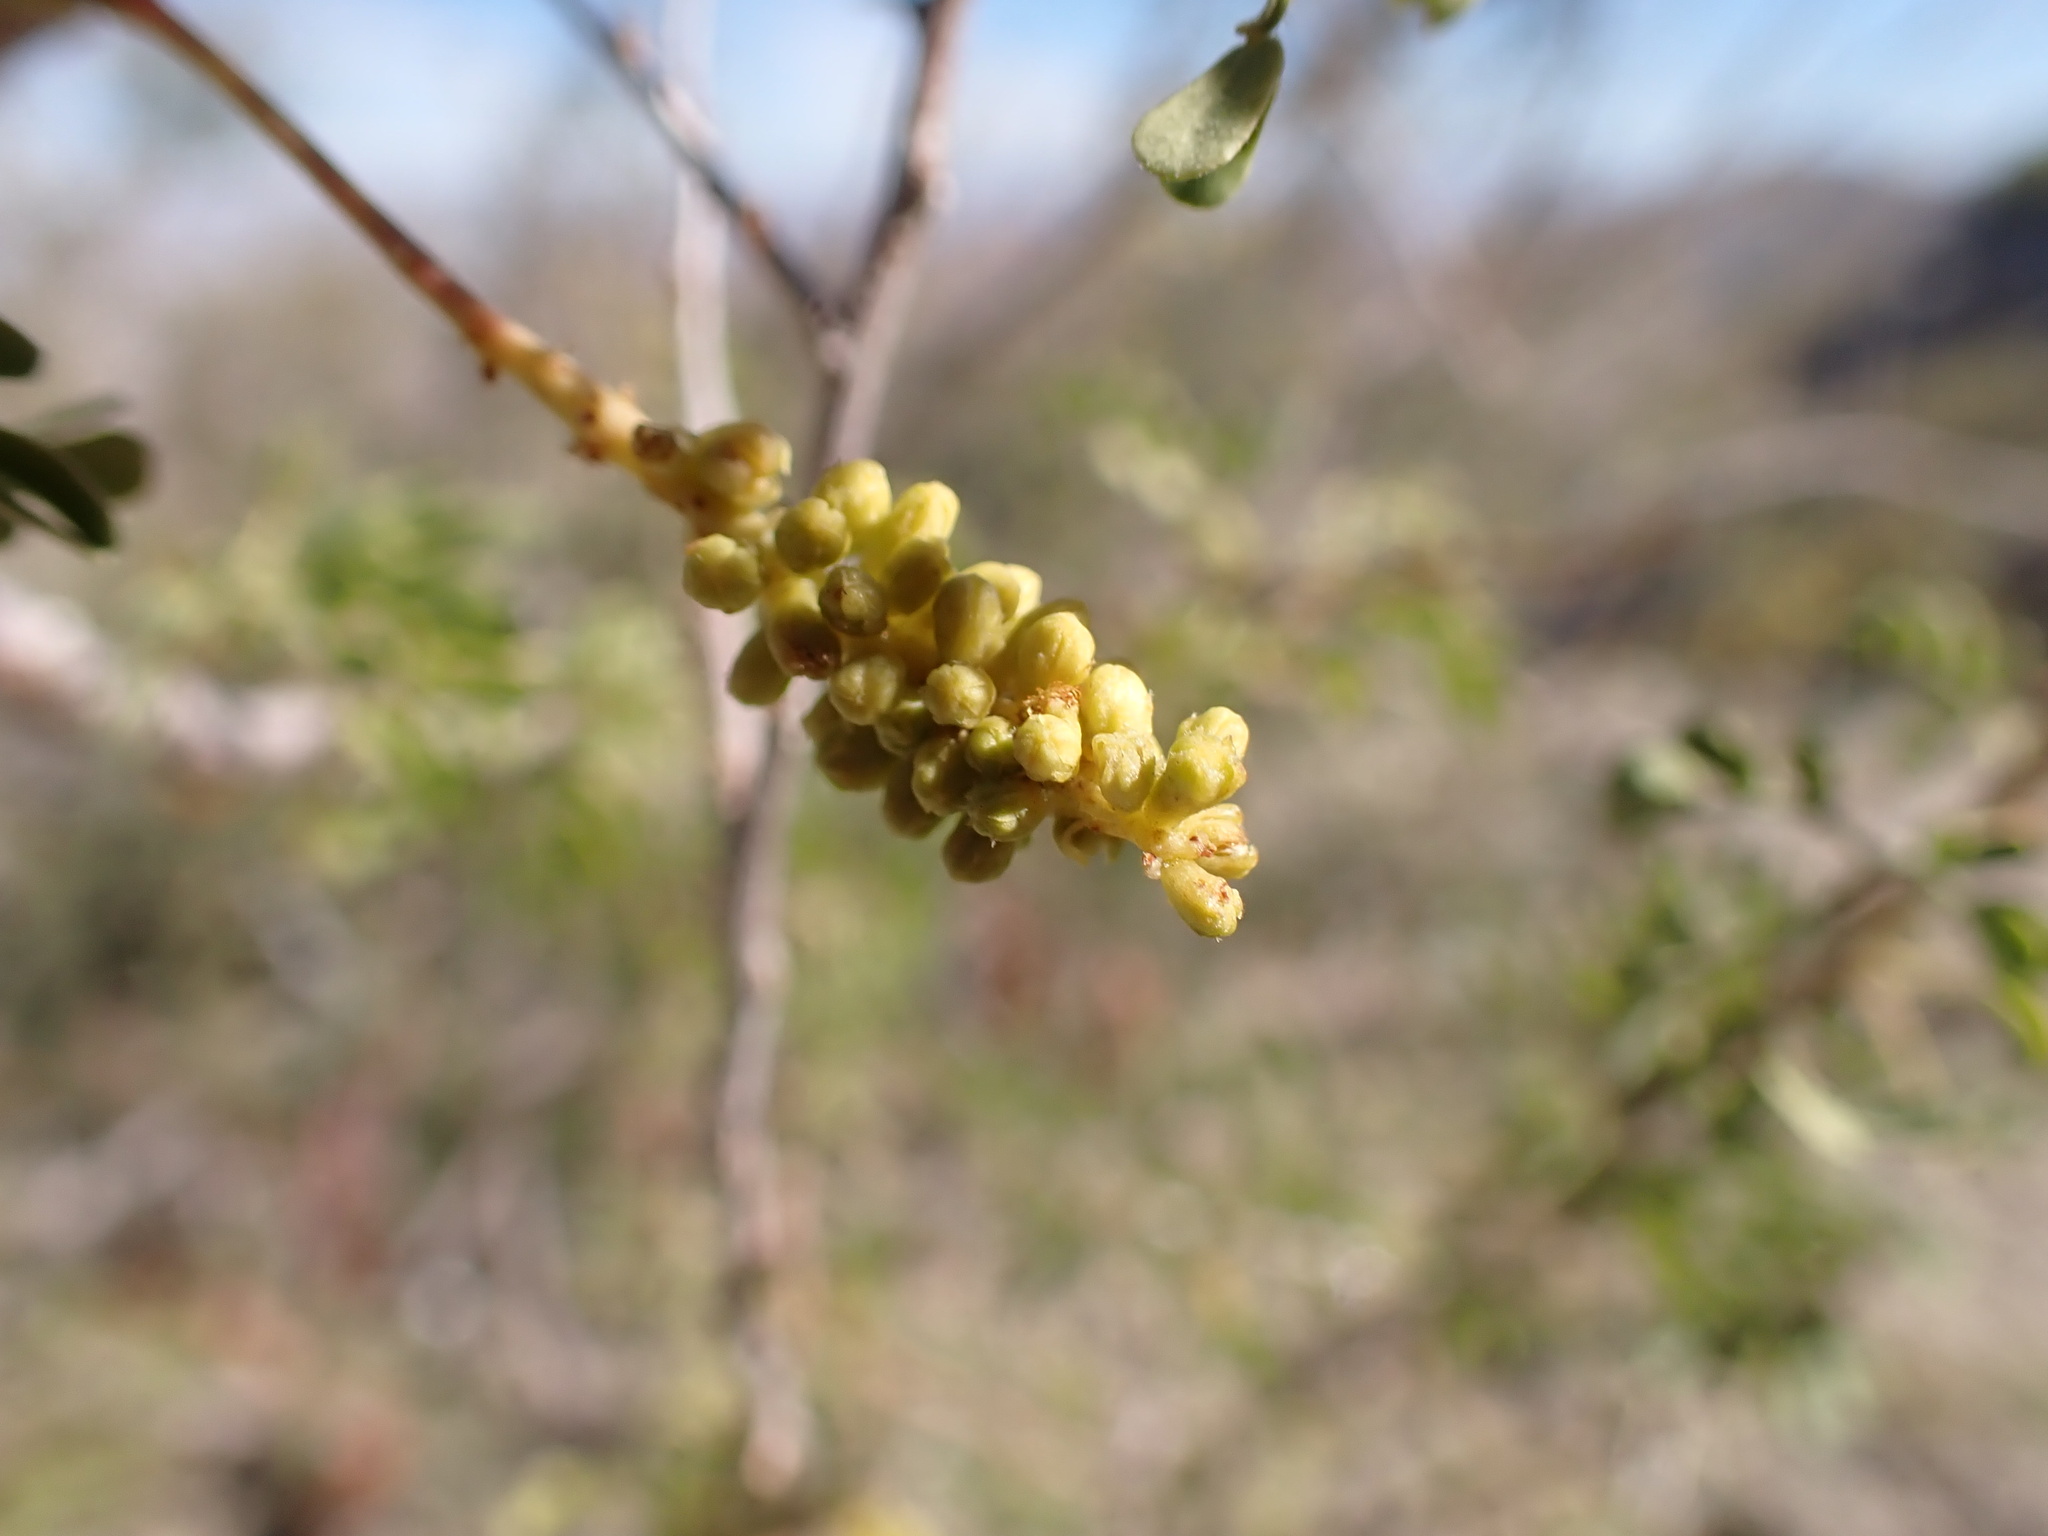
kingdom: Plantae
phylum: Tracheophyta
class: Magnoliopsida
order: Fabales
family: Fabaceae
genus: Senegalia
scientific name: Senegalia greggii
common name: Texas-mimosa
